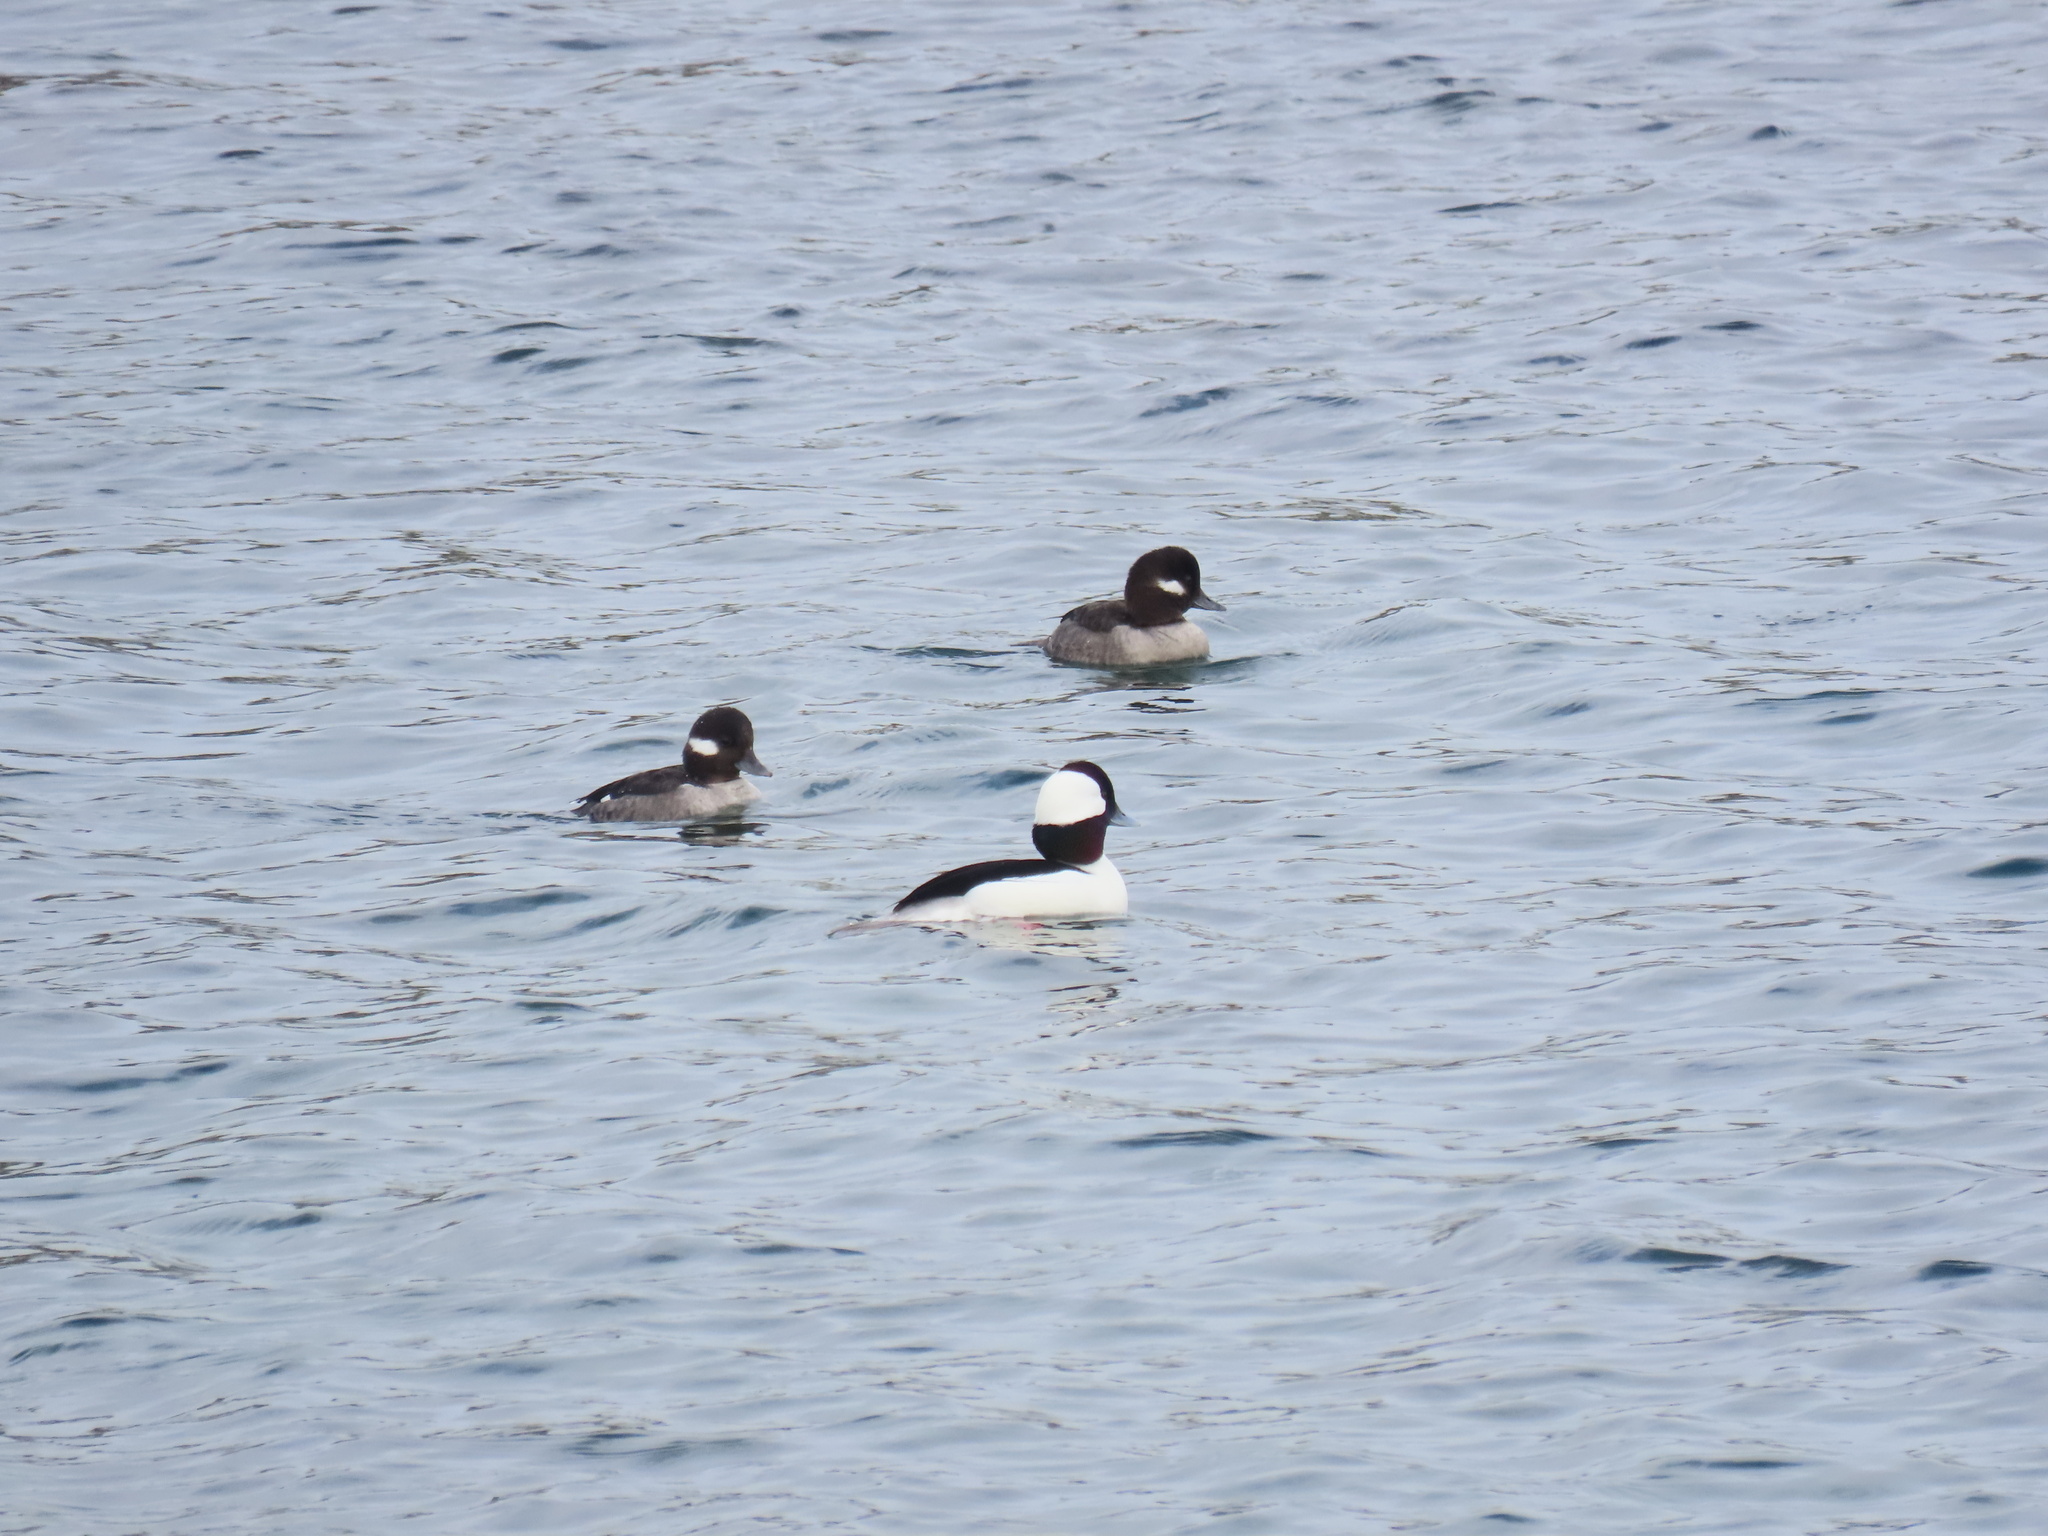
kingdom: Animalia
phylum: Chordata
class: Aves
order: Anseriformes
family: Anatidae
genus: Bucephala
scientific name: Bucephala albeola
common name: Bufflehead
